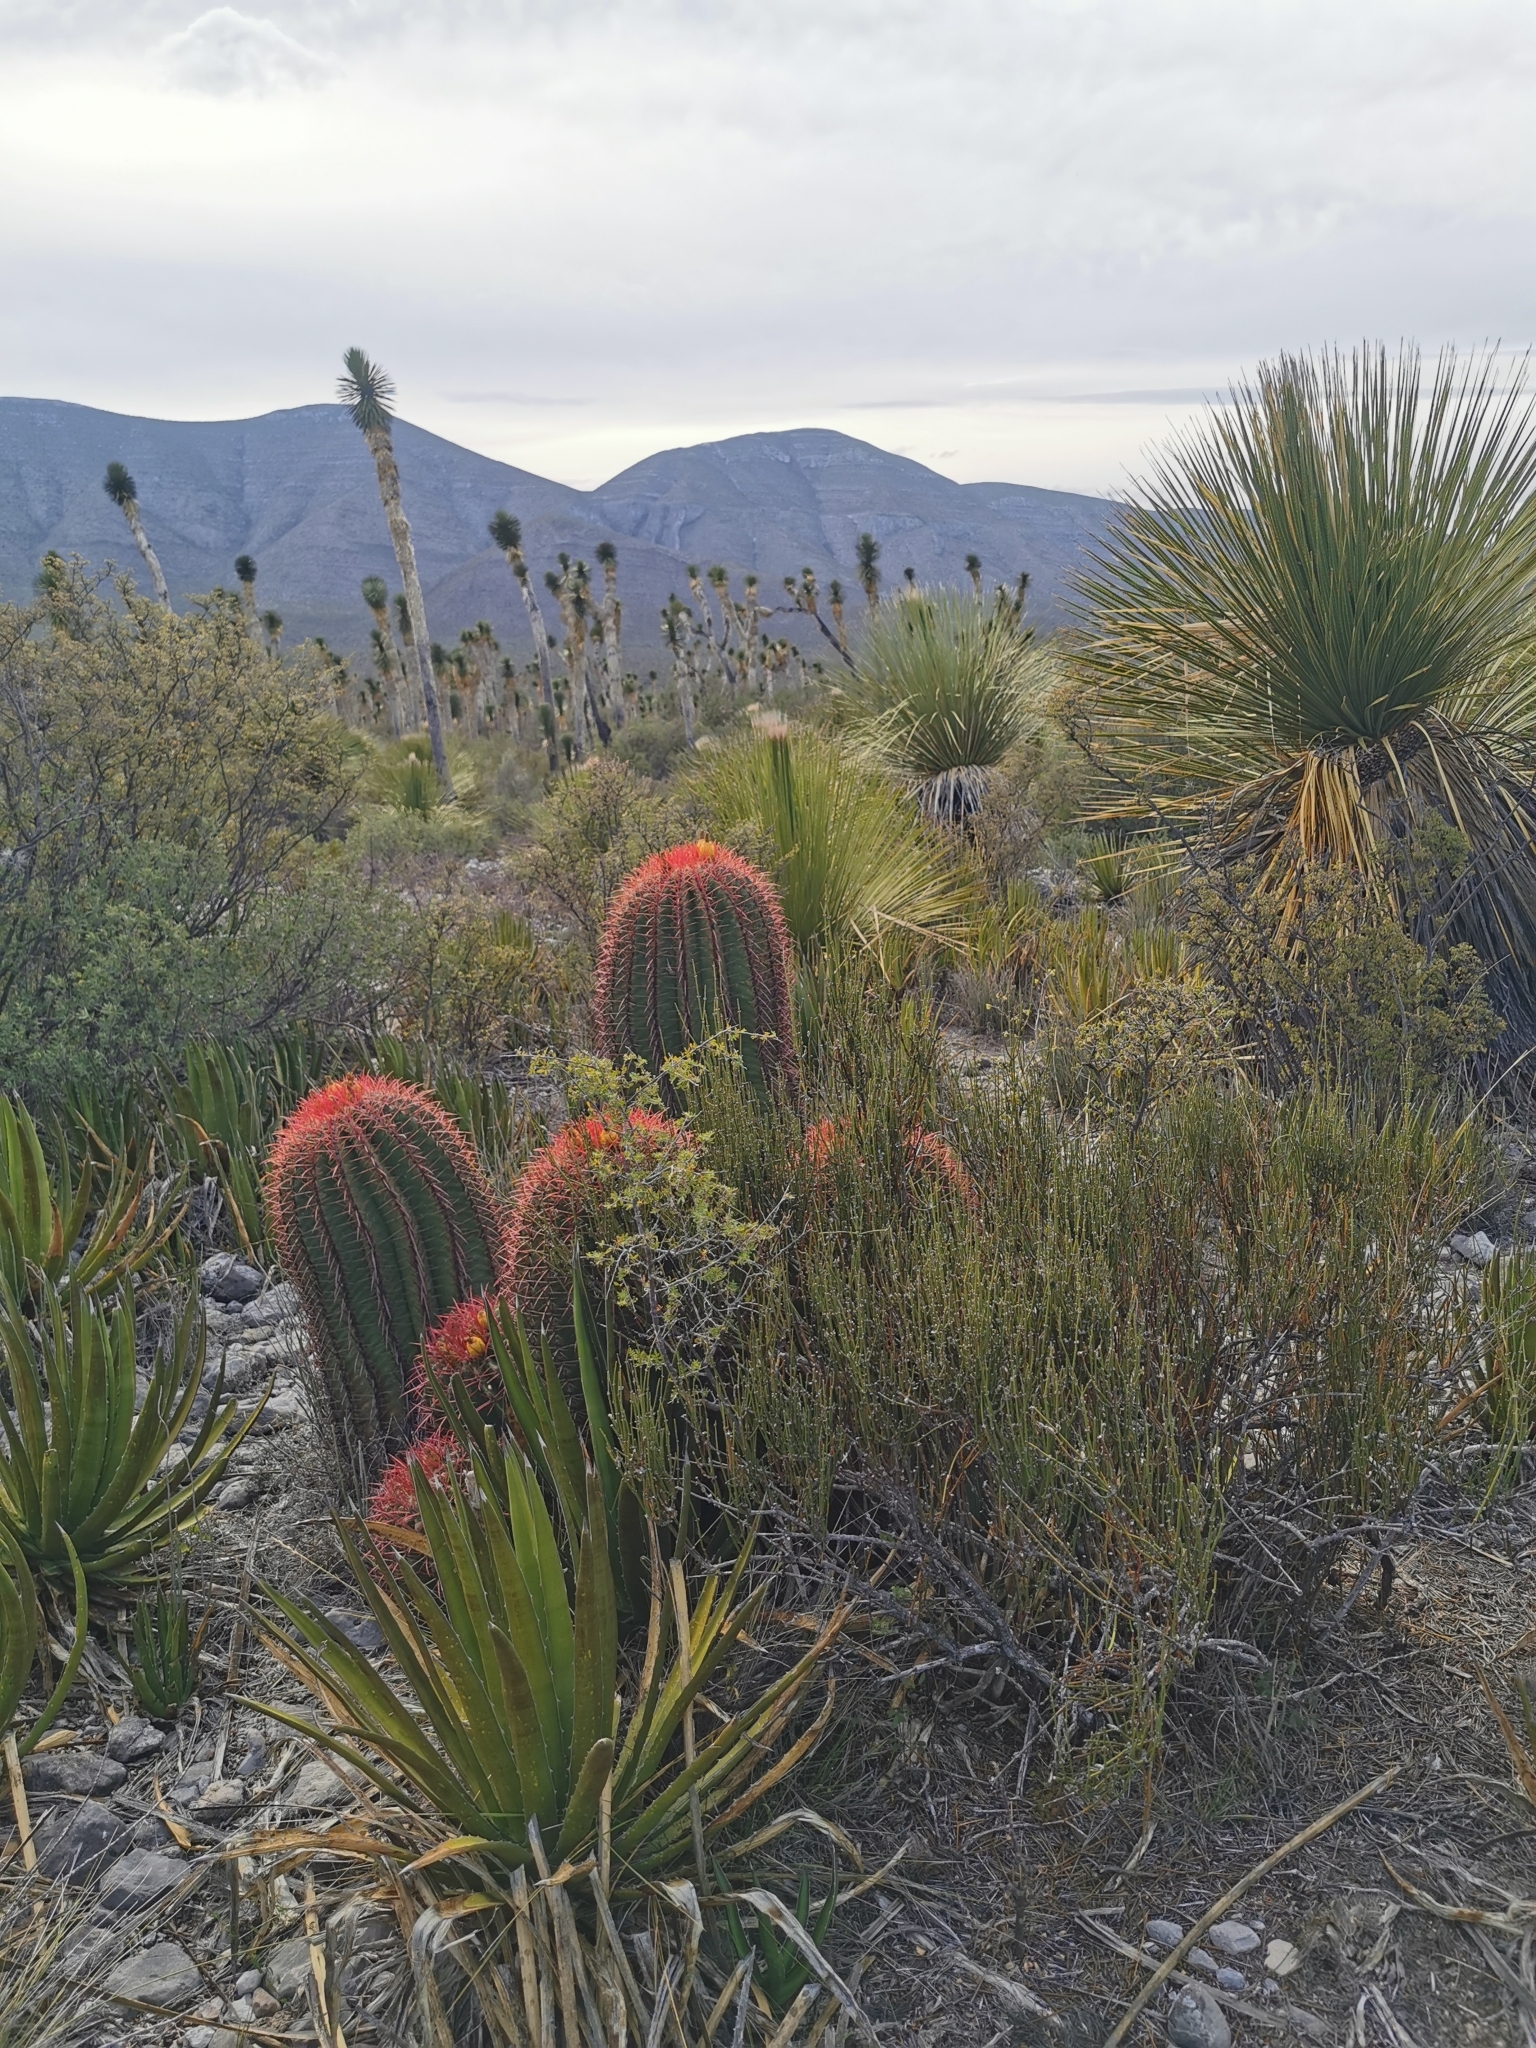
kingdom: Plantae
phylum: Tracheophyta
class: Magnoliopsida
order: Caryophyllales
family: Cactaceae
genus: Ferocactus
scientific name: Ferocactus pilosus
